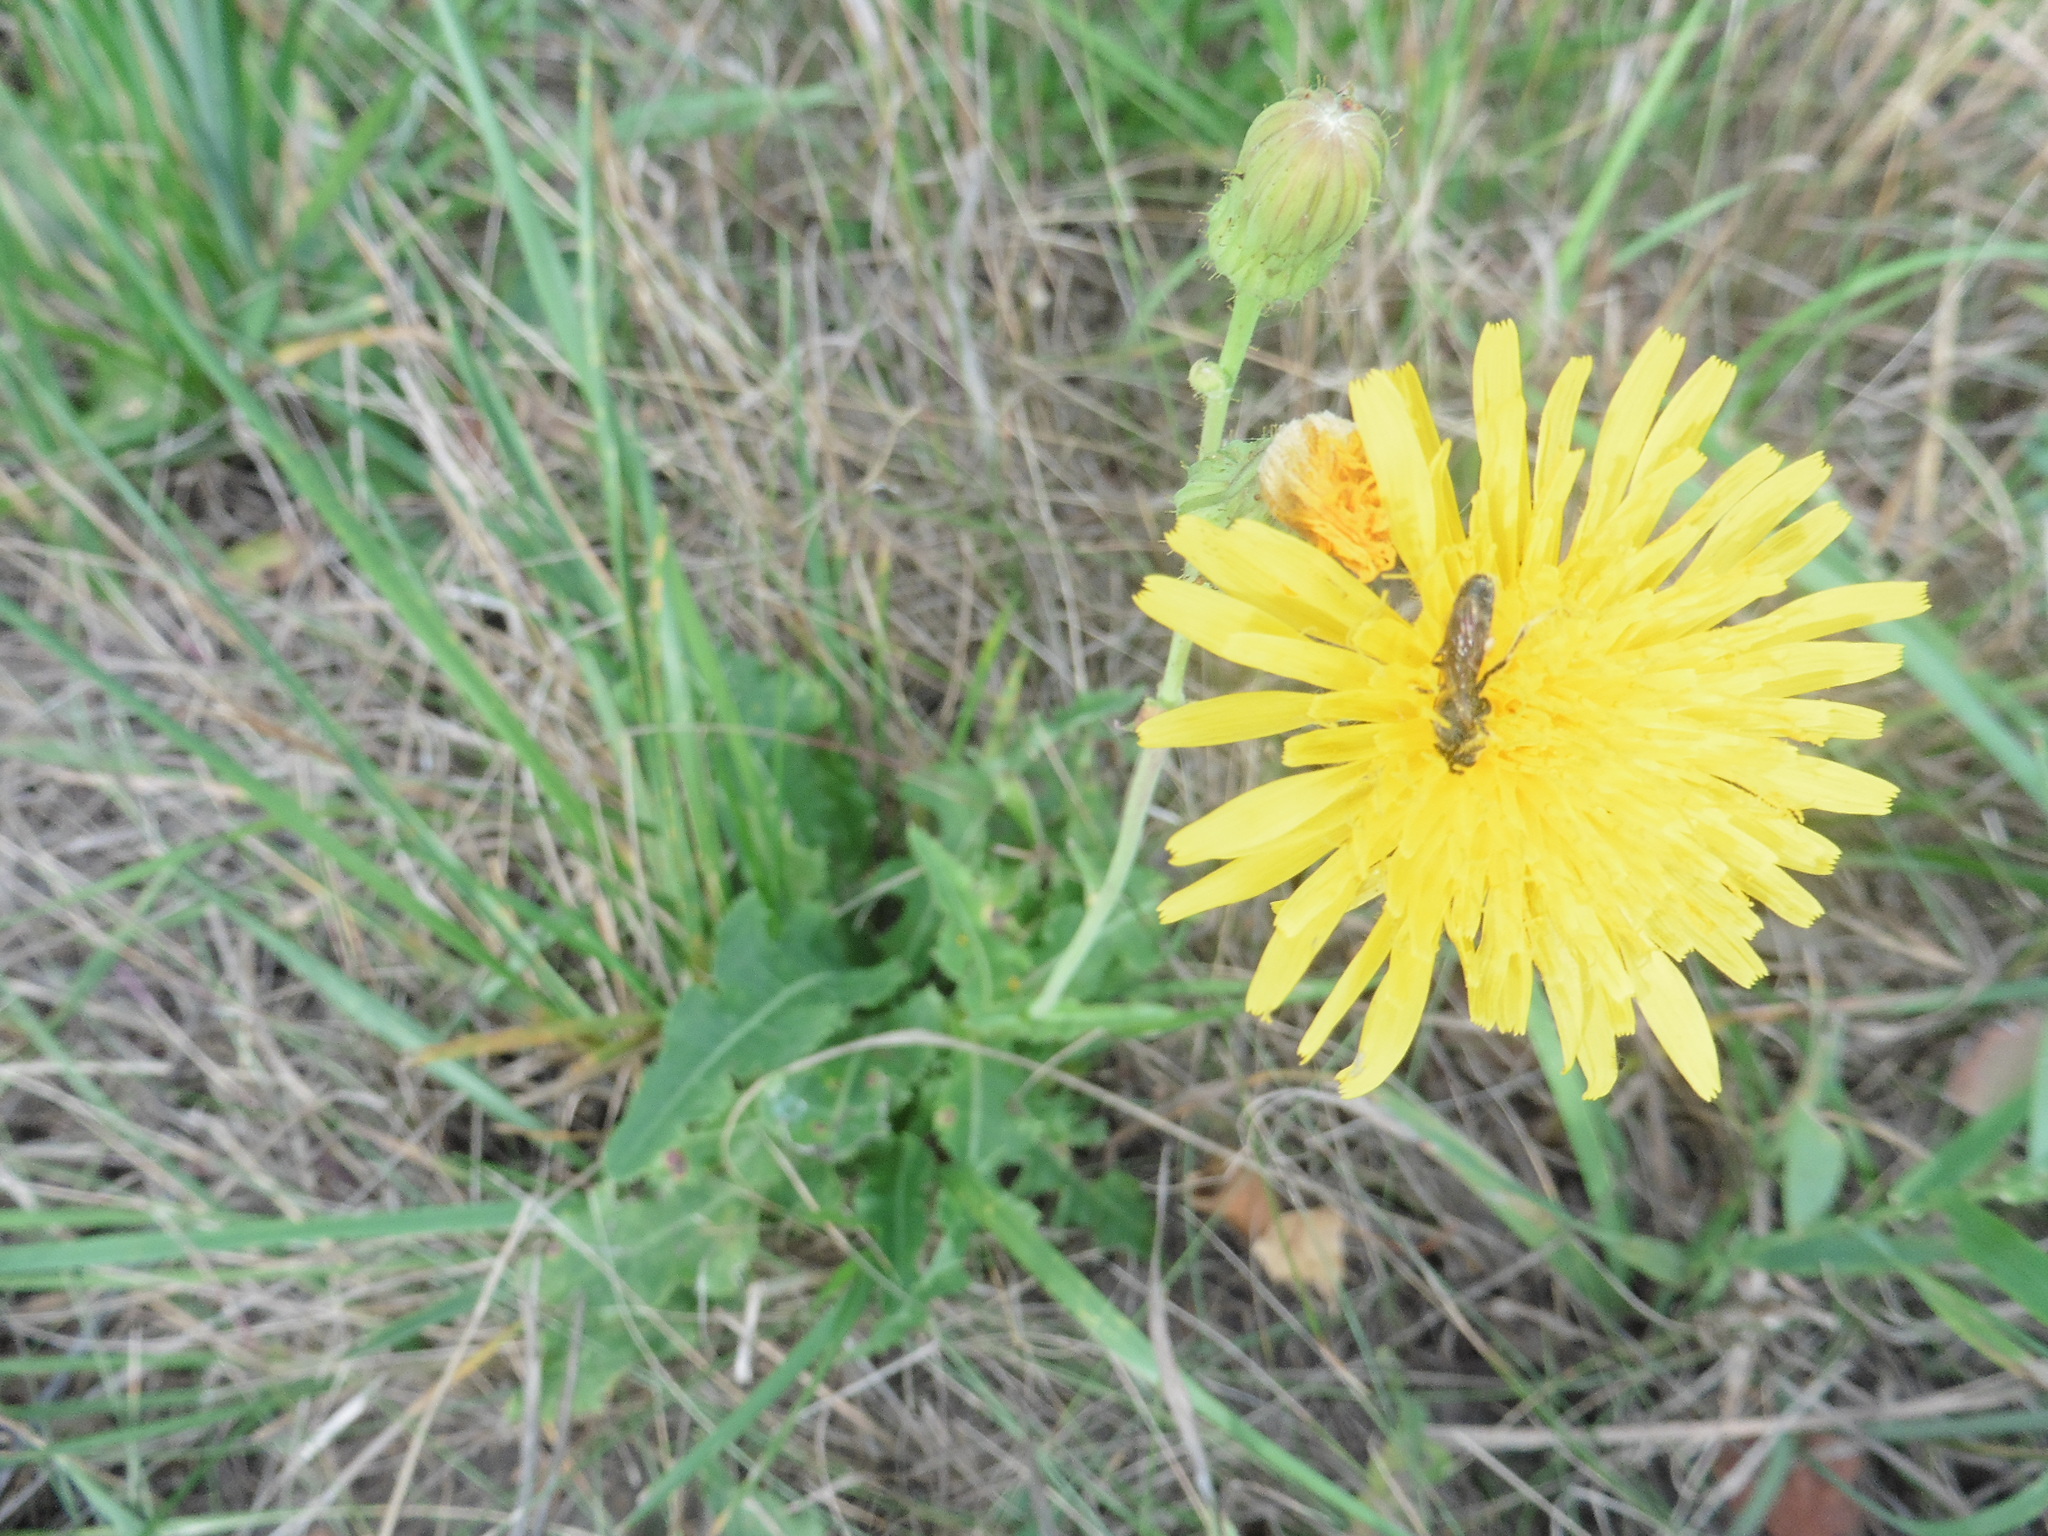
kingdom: Plantae
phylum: Tracheophyta
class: Magnoliopsida
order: Asterales
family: Asteraceae
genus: Sonchus
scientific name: Sonchus arvensis
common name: Perennial sow-thistle
